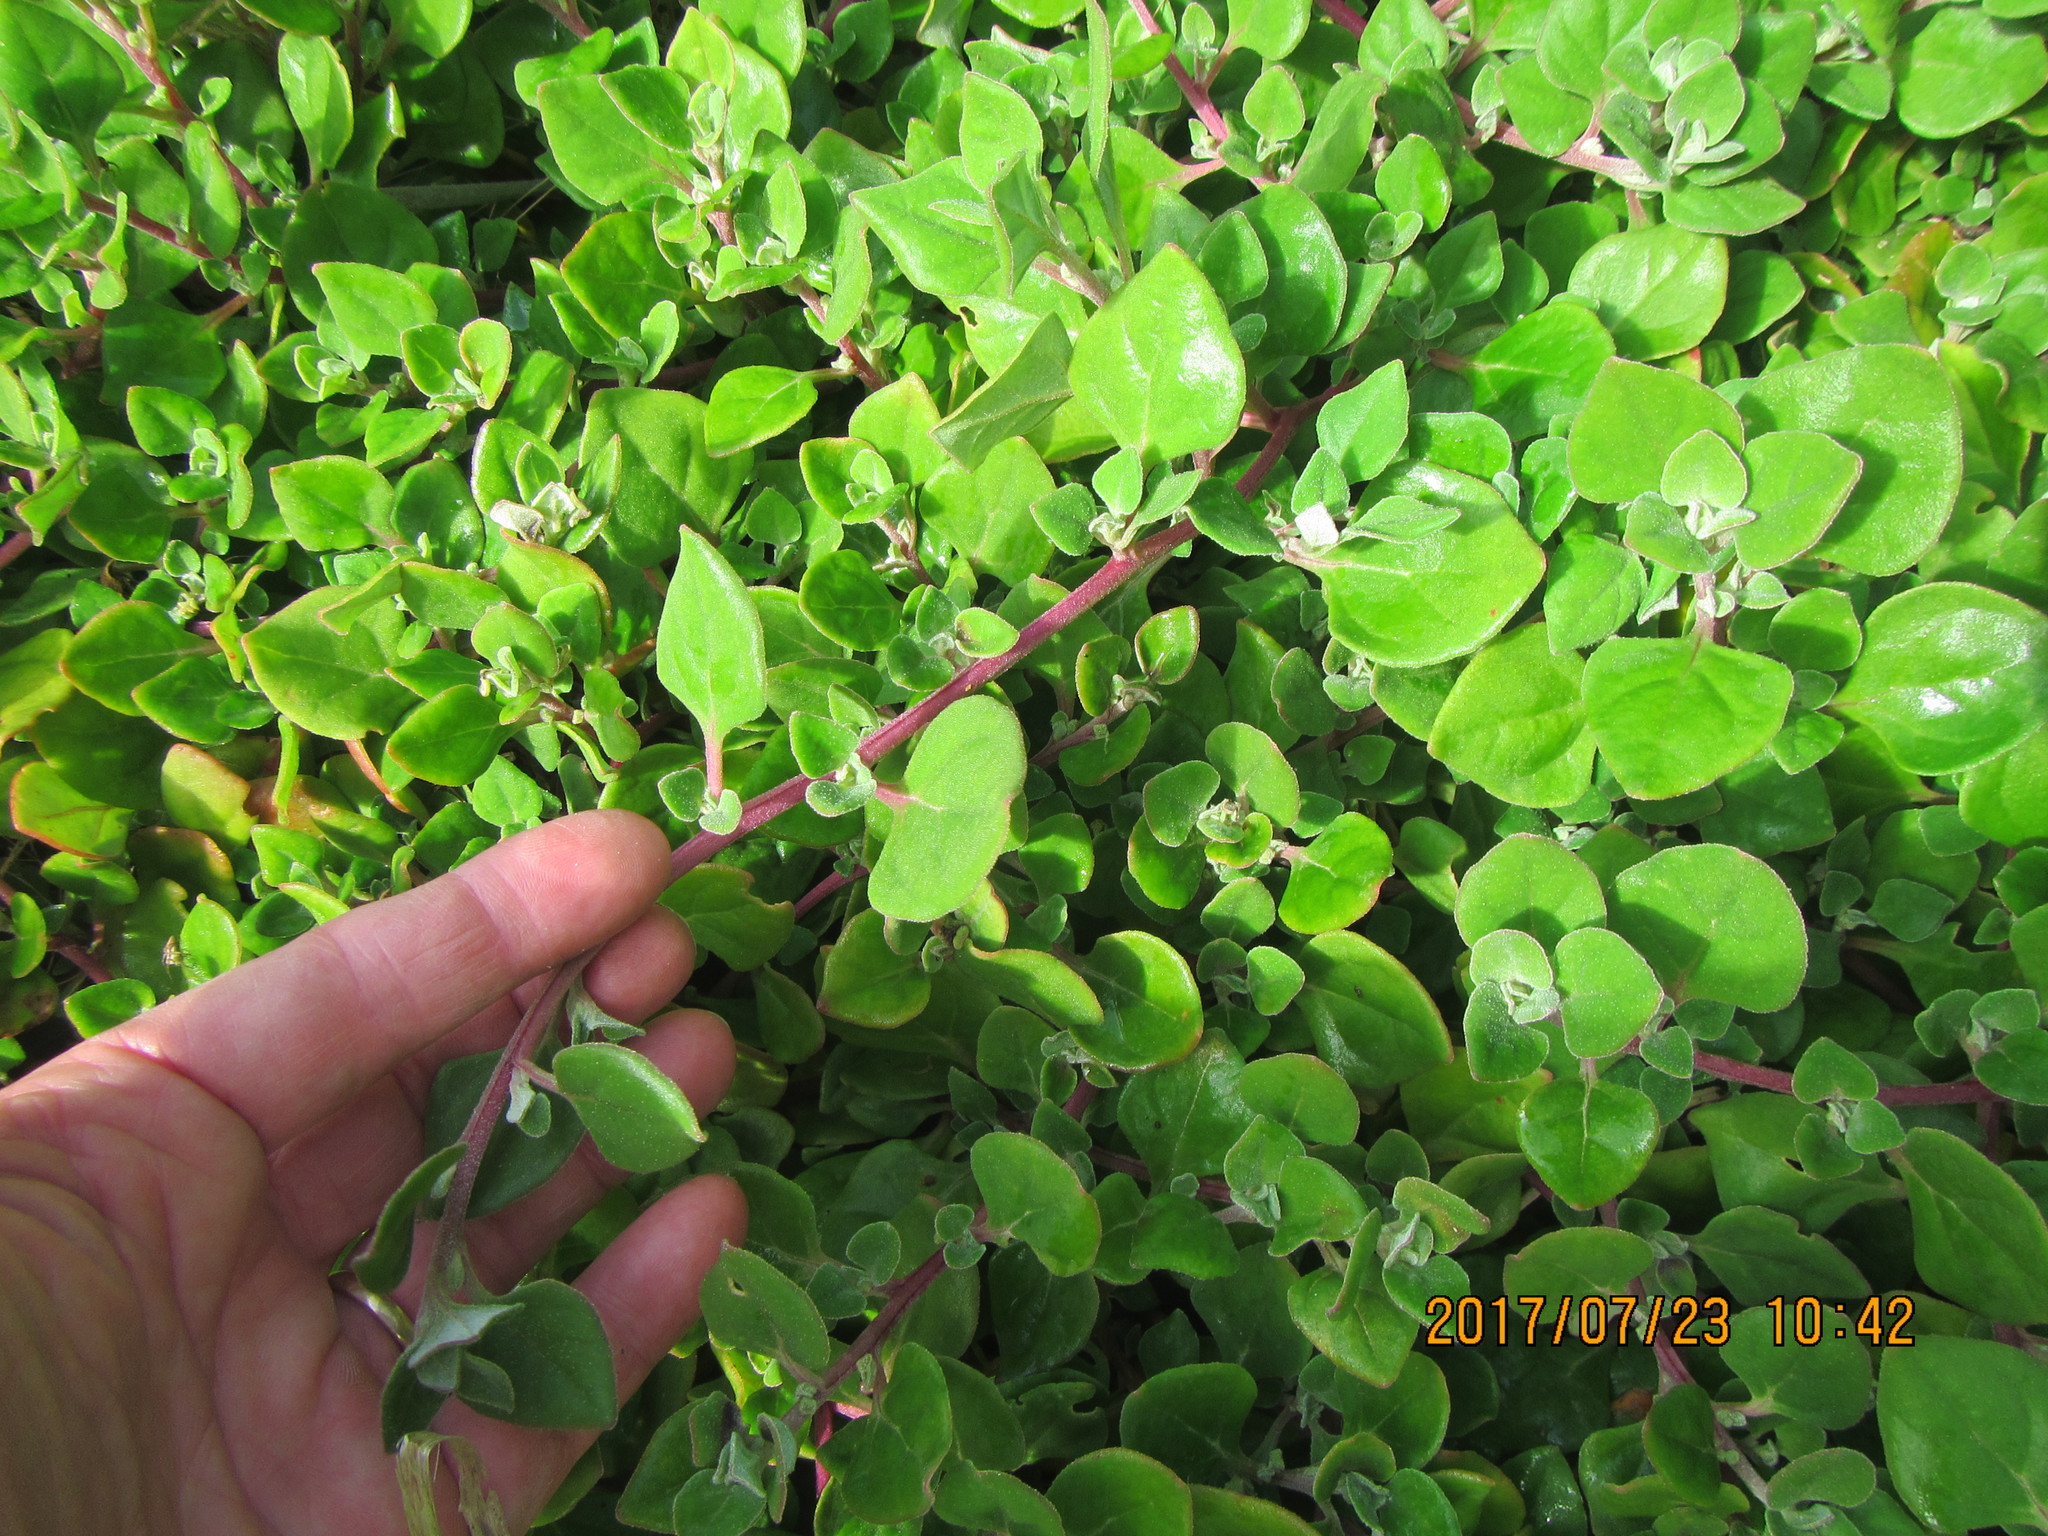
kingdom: Plantae
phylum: Tracheophyta
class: Magnoliopsida
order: Caryophyllales
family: Aizoaceae
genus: Tetragonia
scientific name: Tetragonia implexicoma
